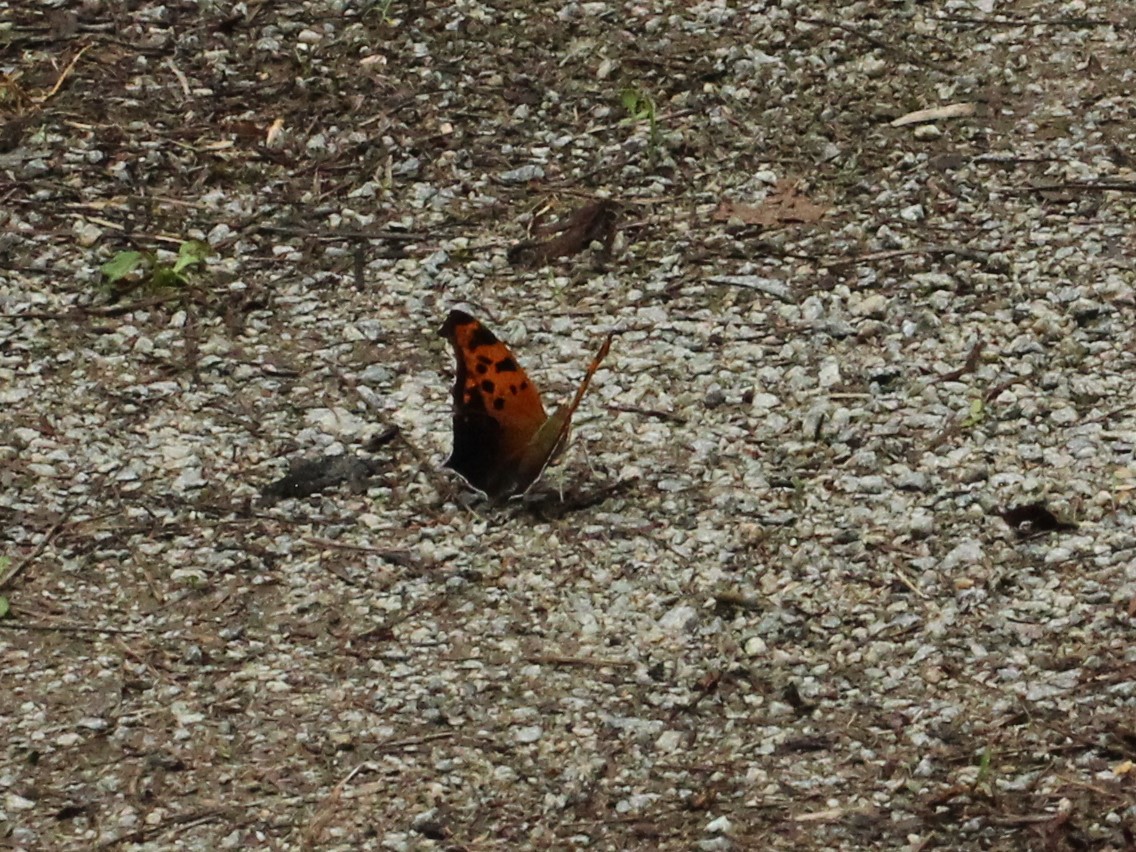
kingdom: Animalia
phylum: Arthropoda
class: Insecta
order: Lepidoptera
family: Nymphalidae
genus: Polygonia
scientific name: Polygonia interrogationis
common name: Question mark
